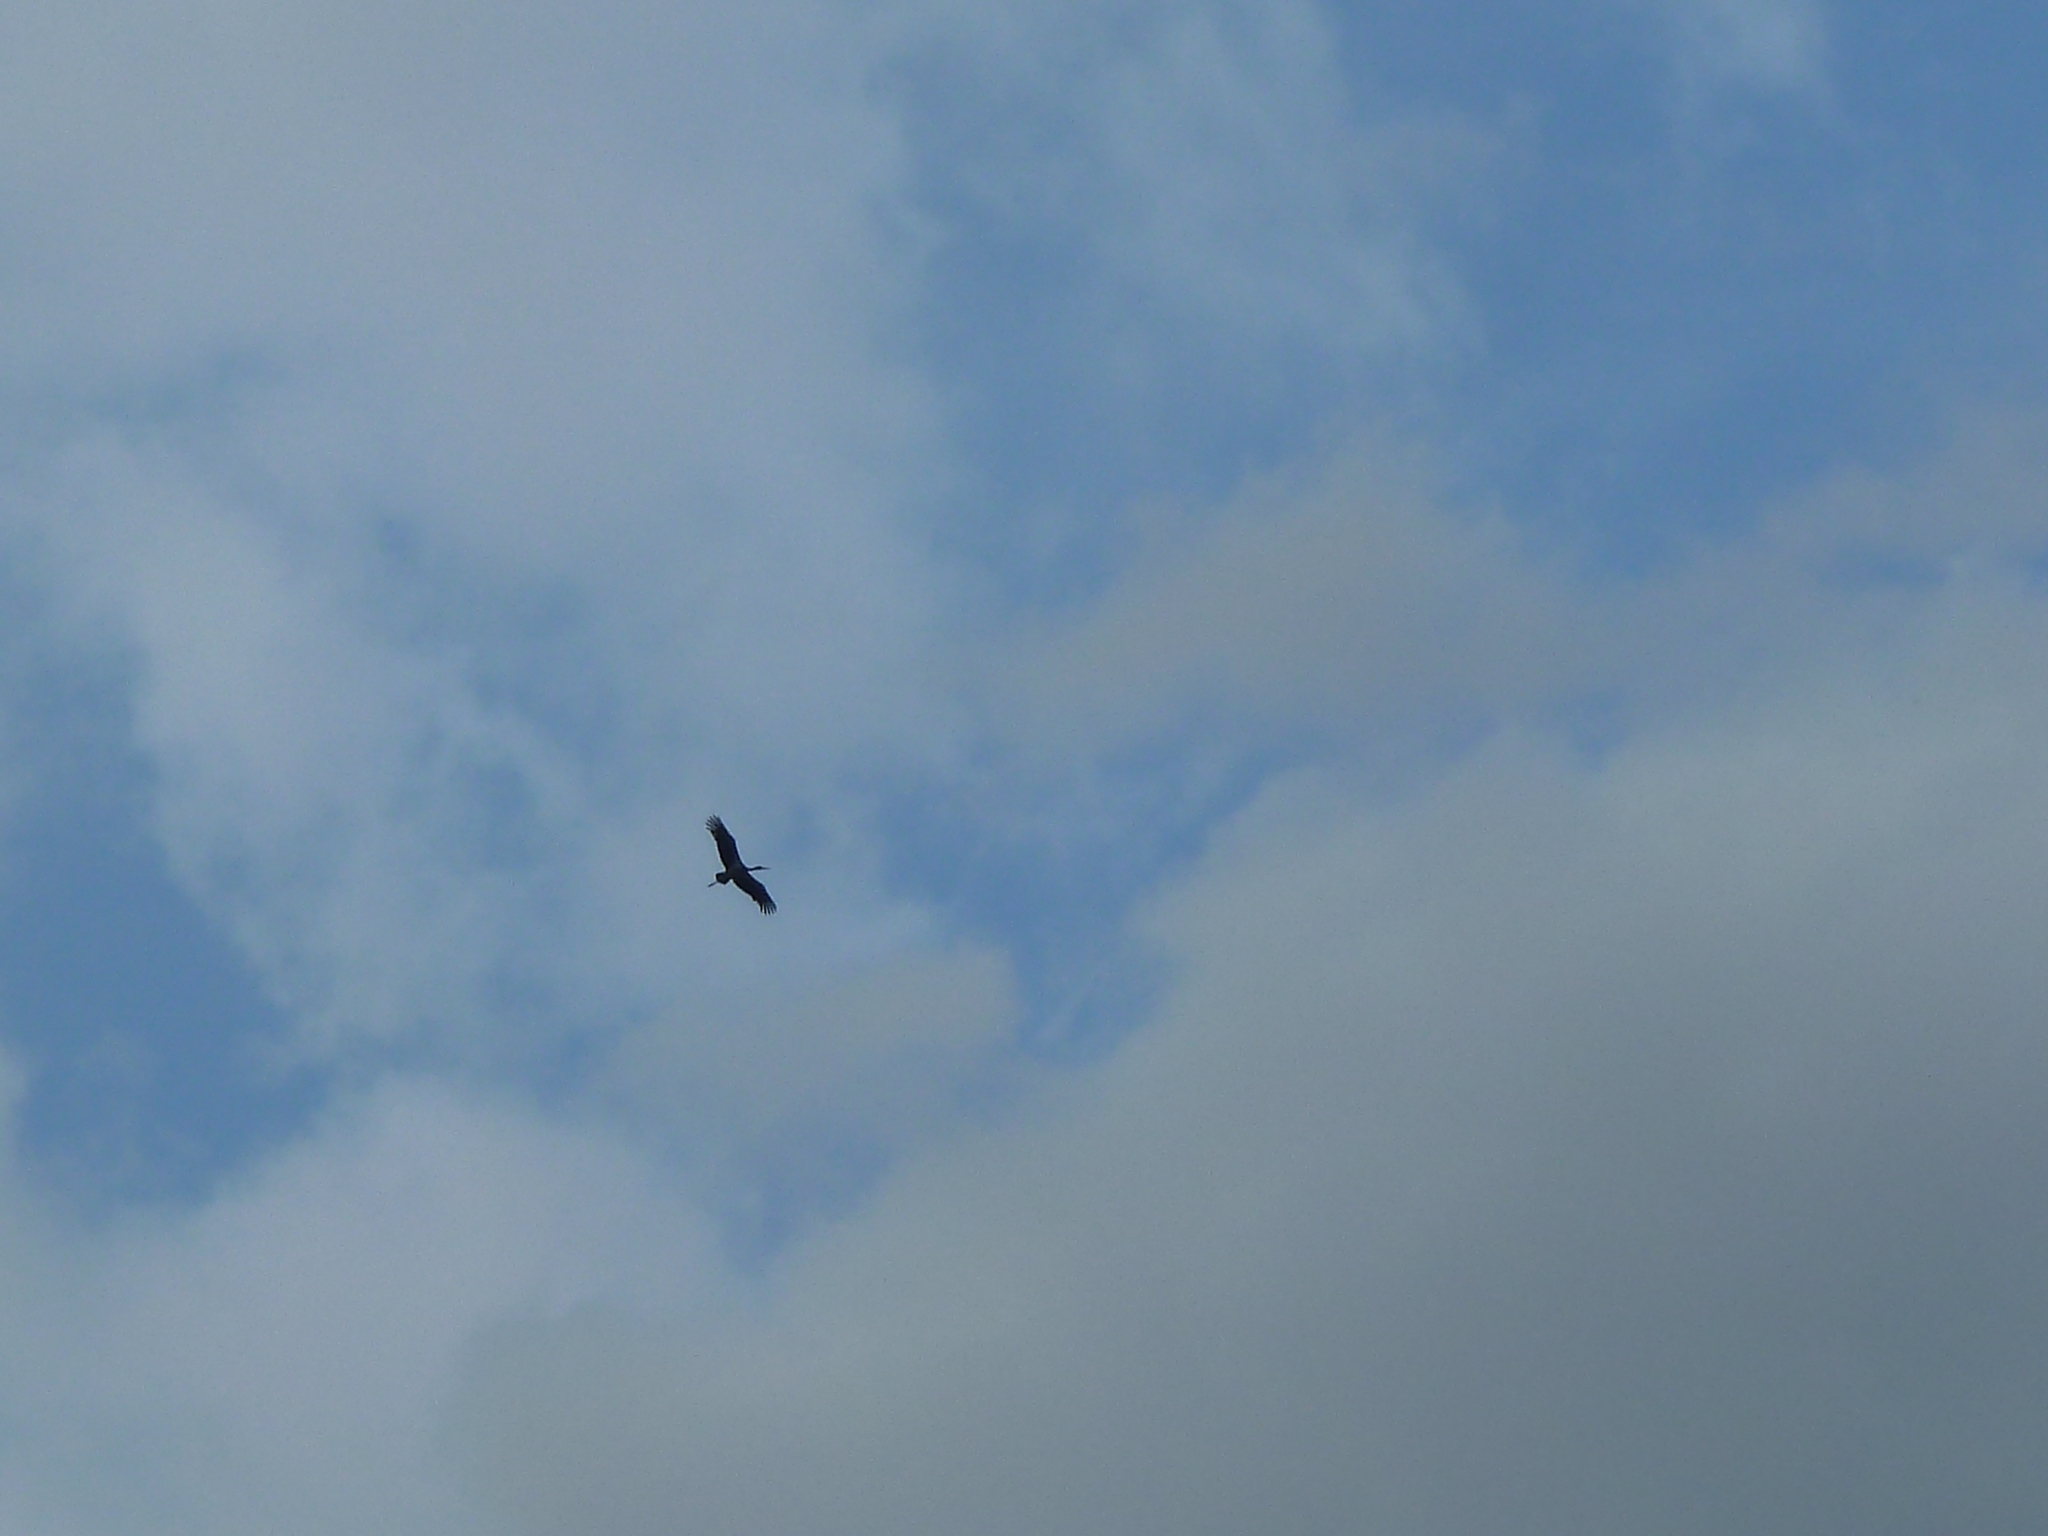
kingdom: Animalia
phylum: Chordata
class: Aves
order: Ciconiiformes
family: Ciconiidae
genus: Ciconia
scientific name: Ciconia nigra
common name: Black stork
